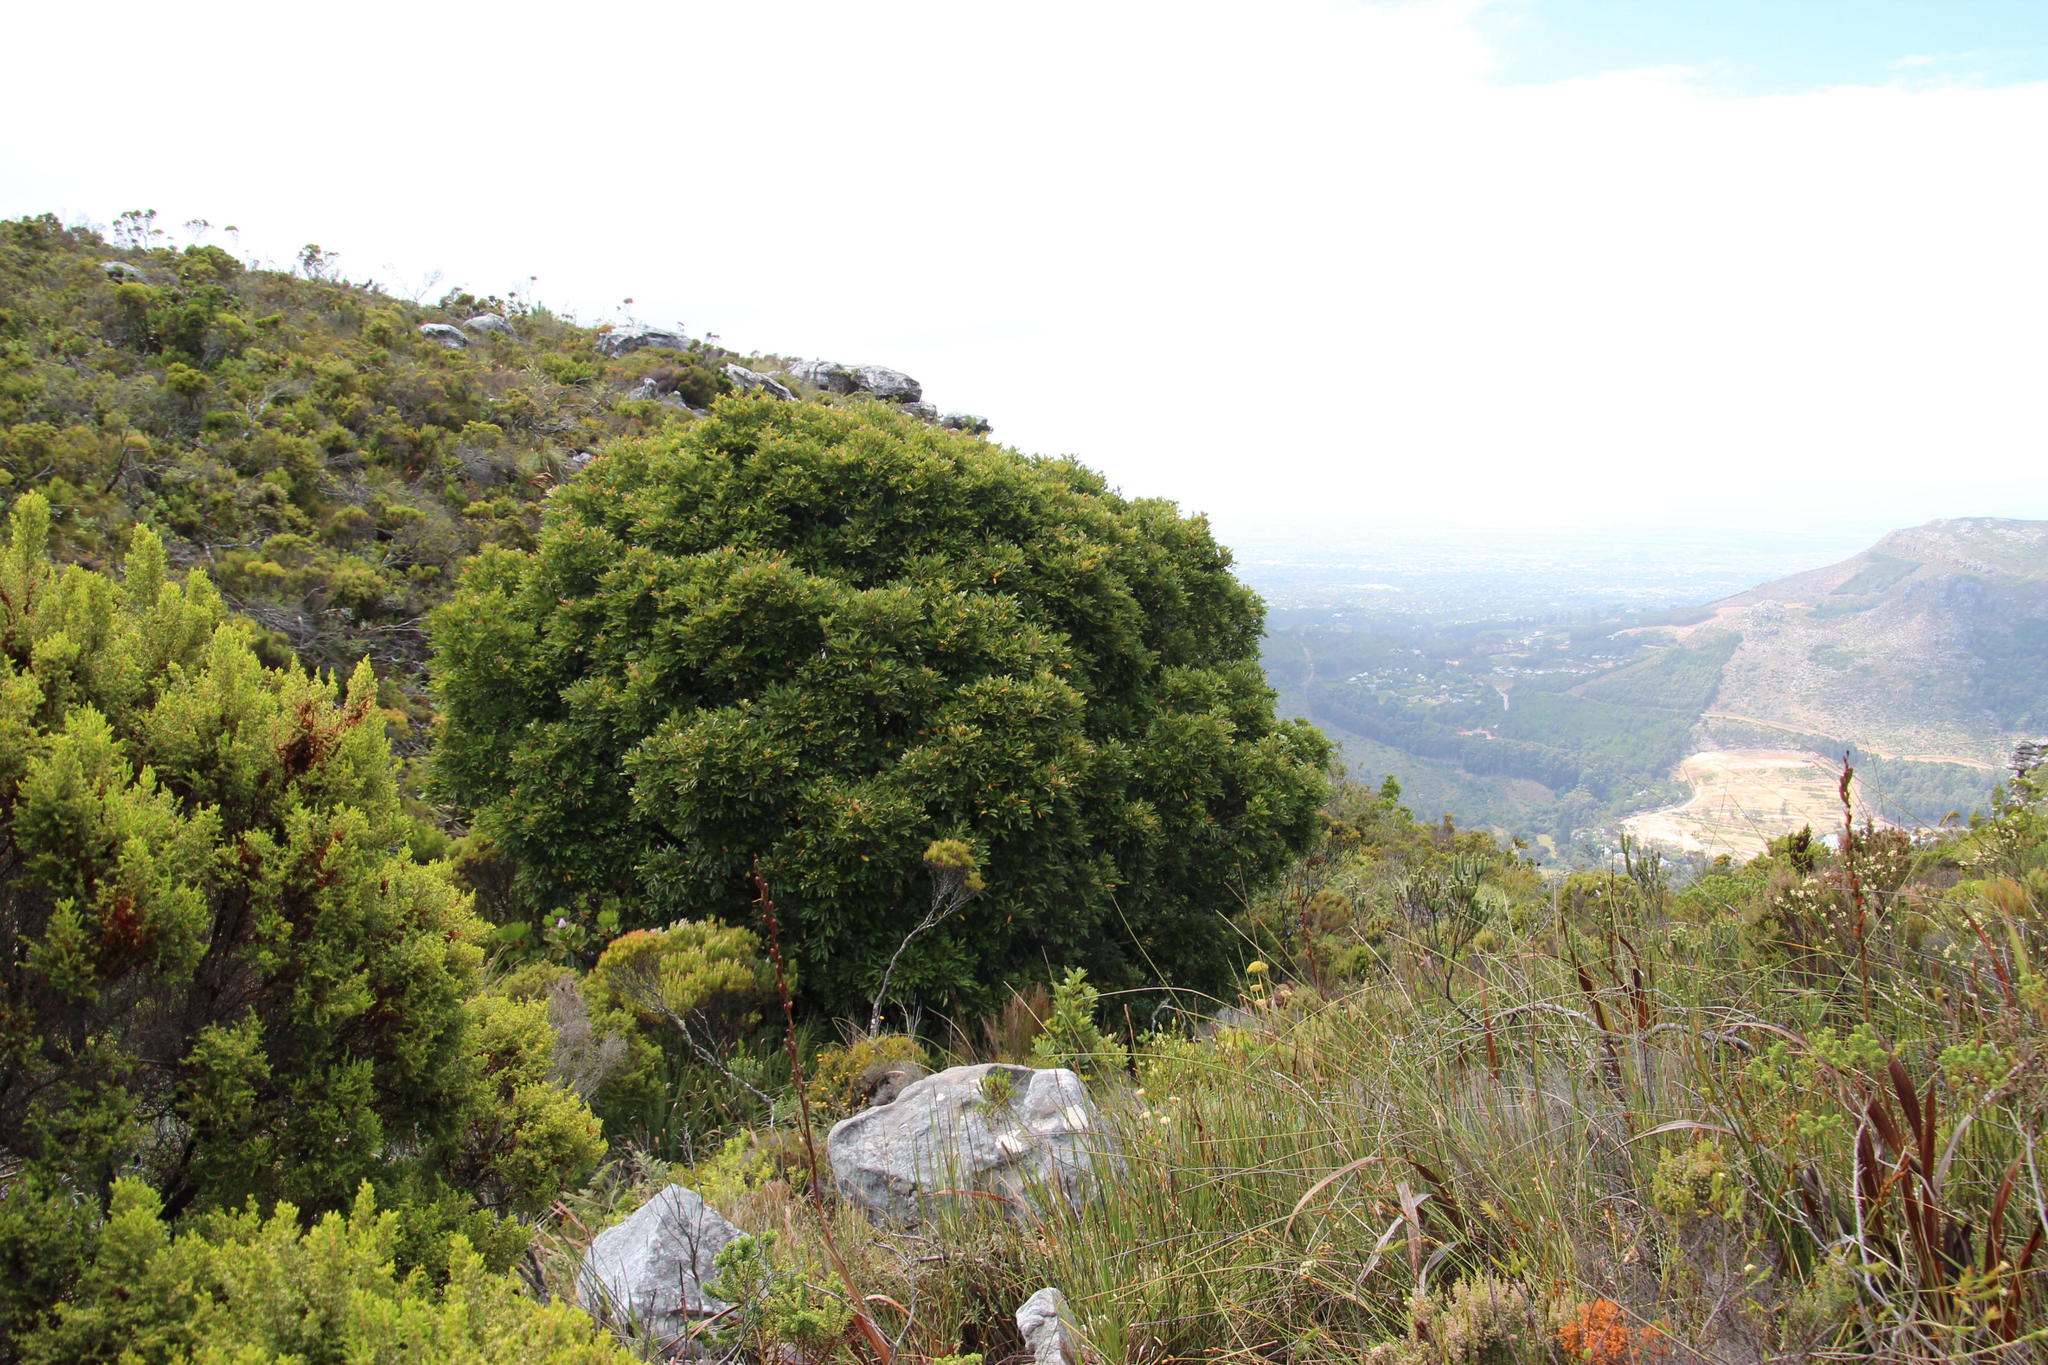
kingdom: Plantae
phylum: Tracheophyta
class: Magnoliopsida
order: Oxalidales
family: Cunoniaceae
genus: Cunonia
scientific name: Cunonia capensis
